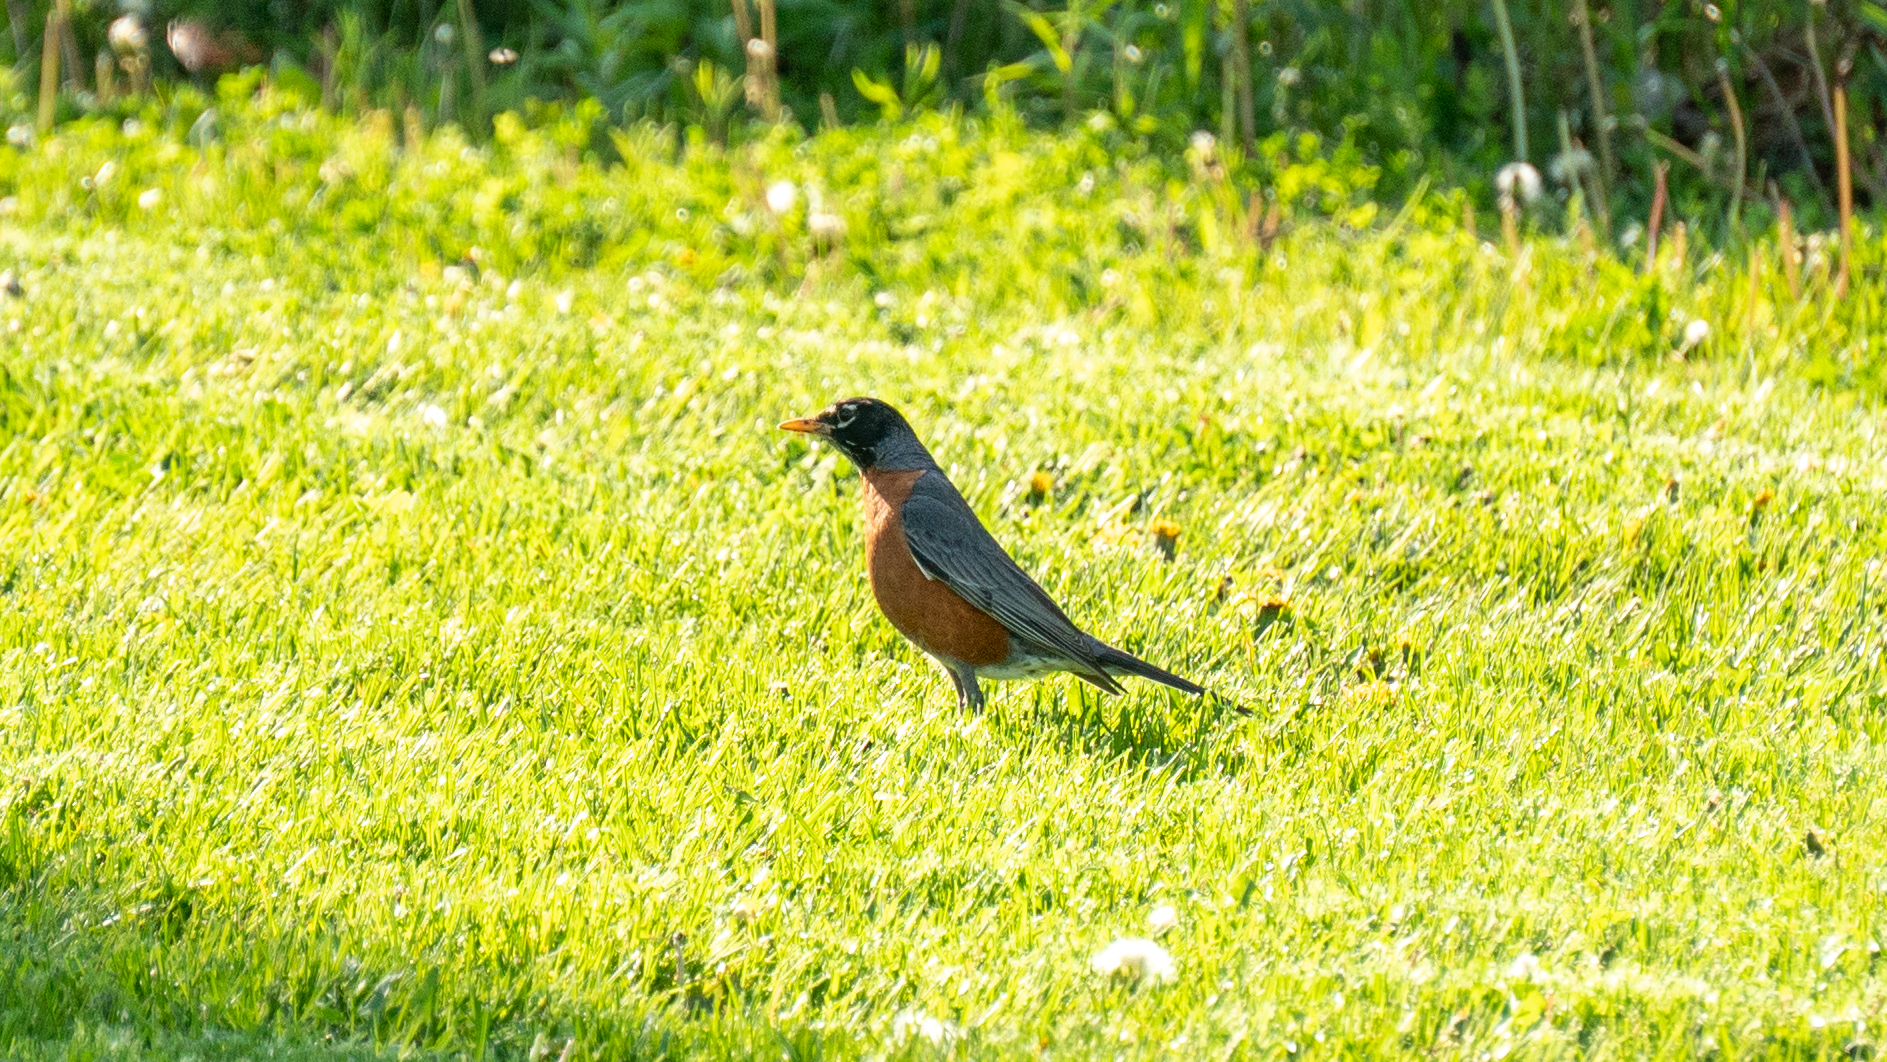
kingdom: Animalia
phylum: Chordata
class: Aves
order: Passeriformes
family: Turdidae
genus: Turdus
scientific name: Turdus migratorius
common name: American robin
